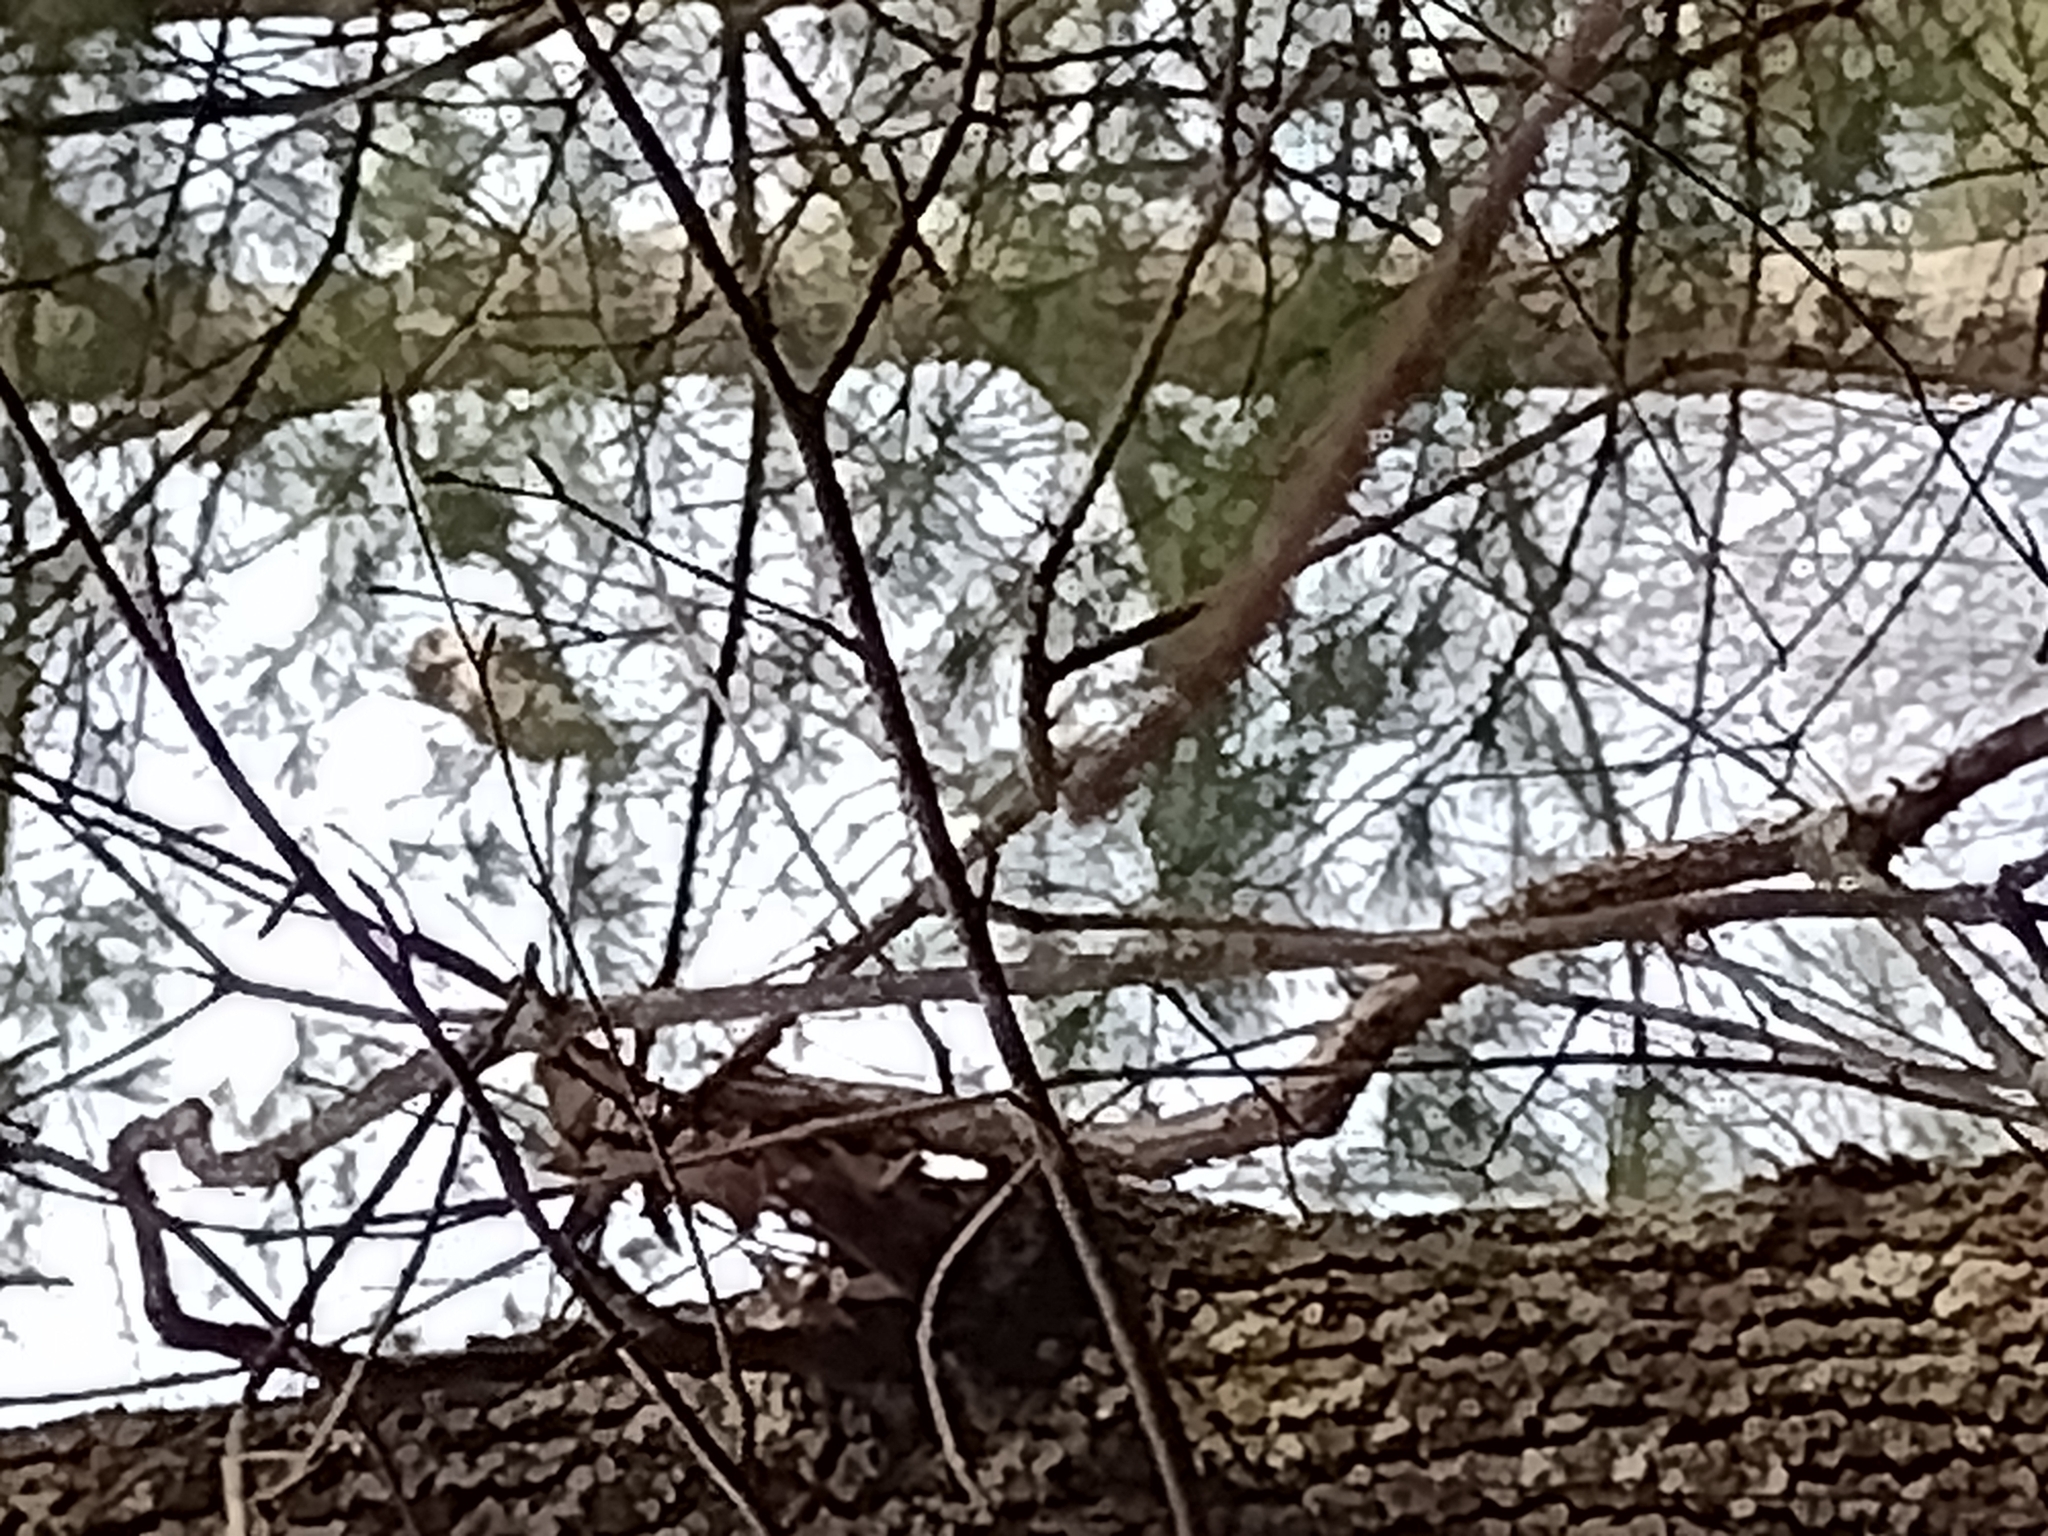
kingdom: Animalia
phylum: Chordata
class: Aves
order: Strigiformes
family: Strigidae
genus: Strix
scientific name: Strix varia
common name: Barred owl
